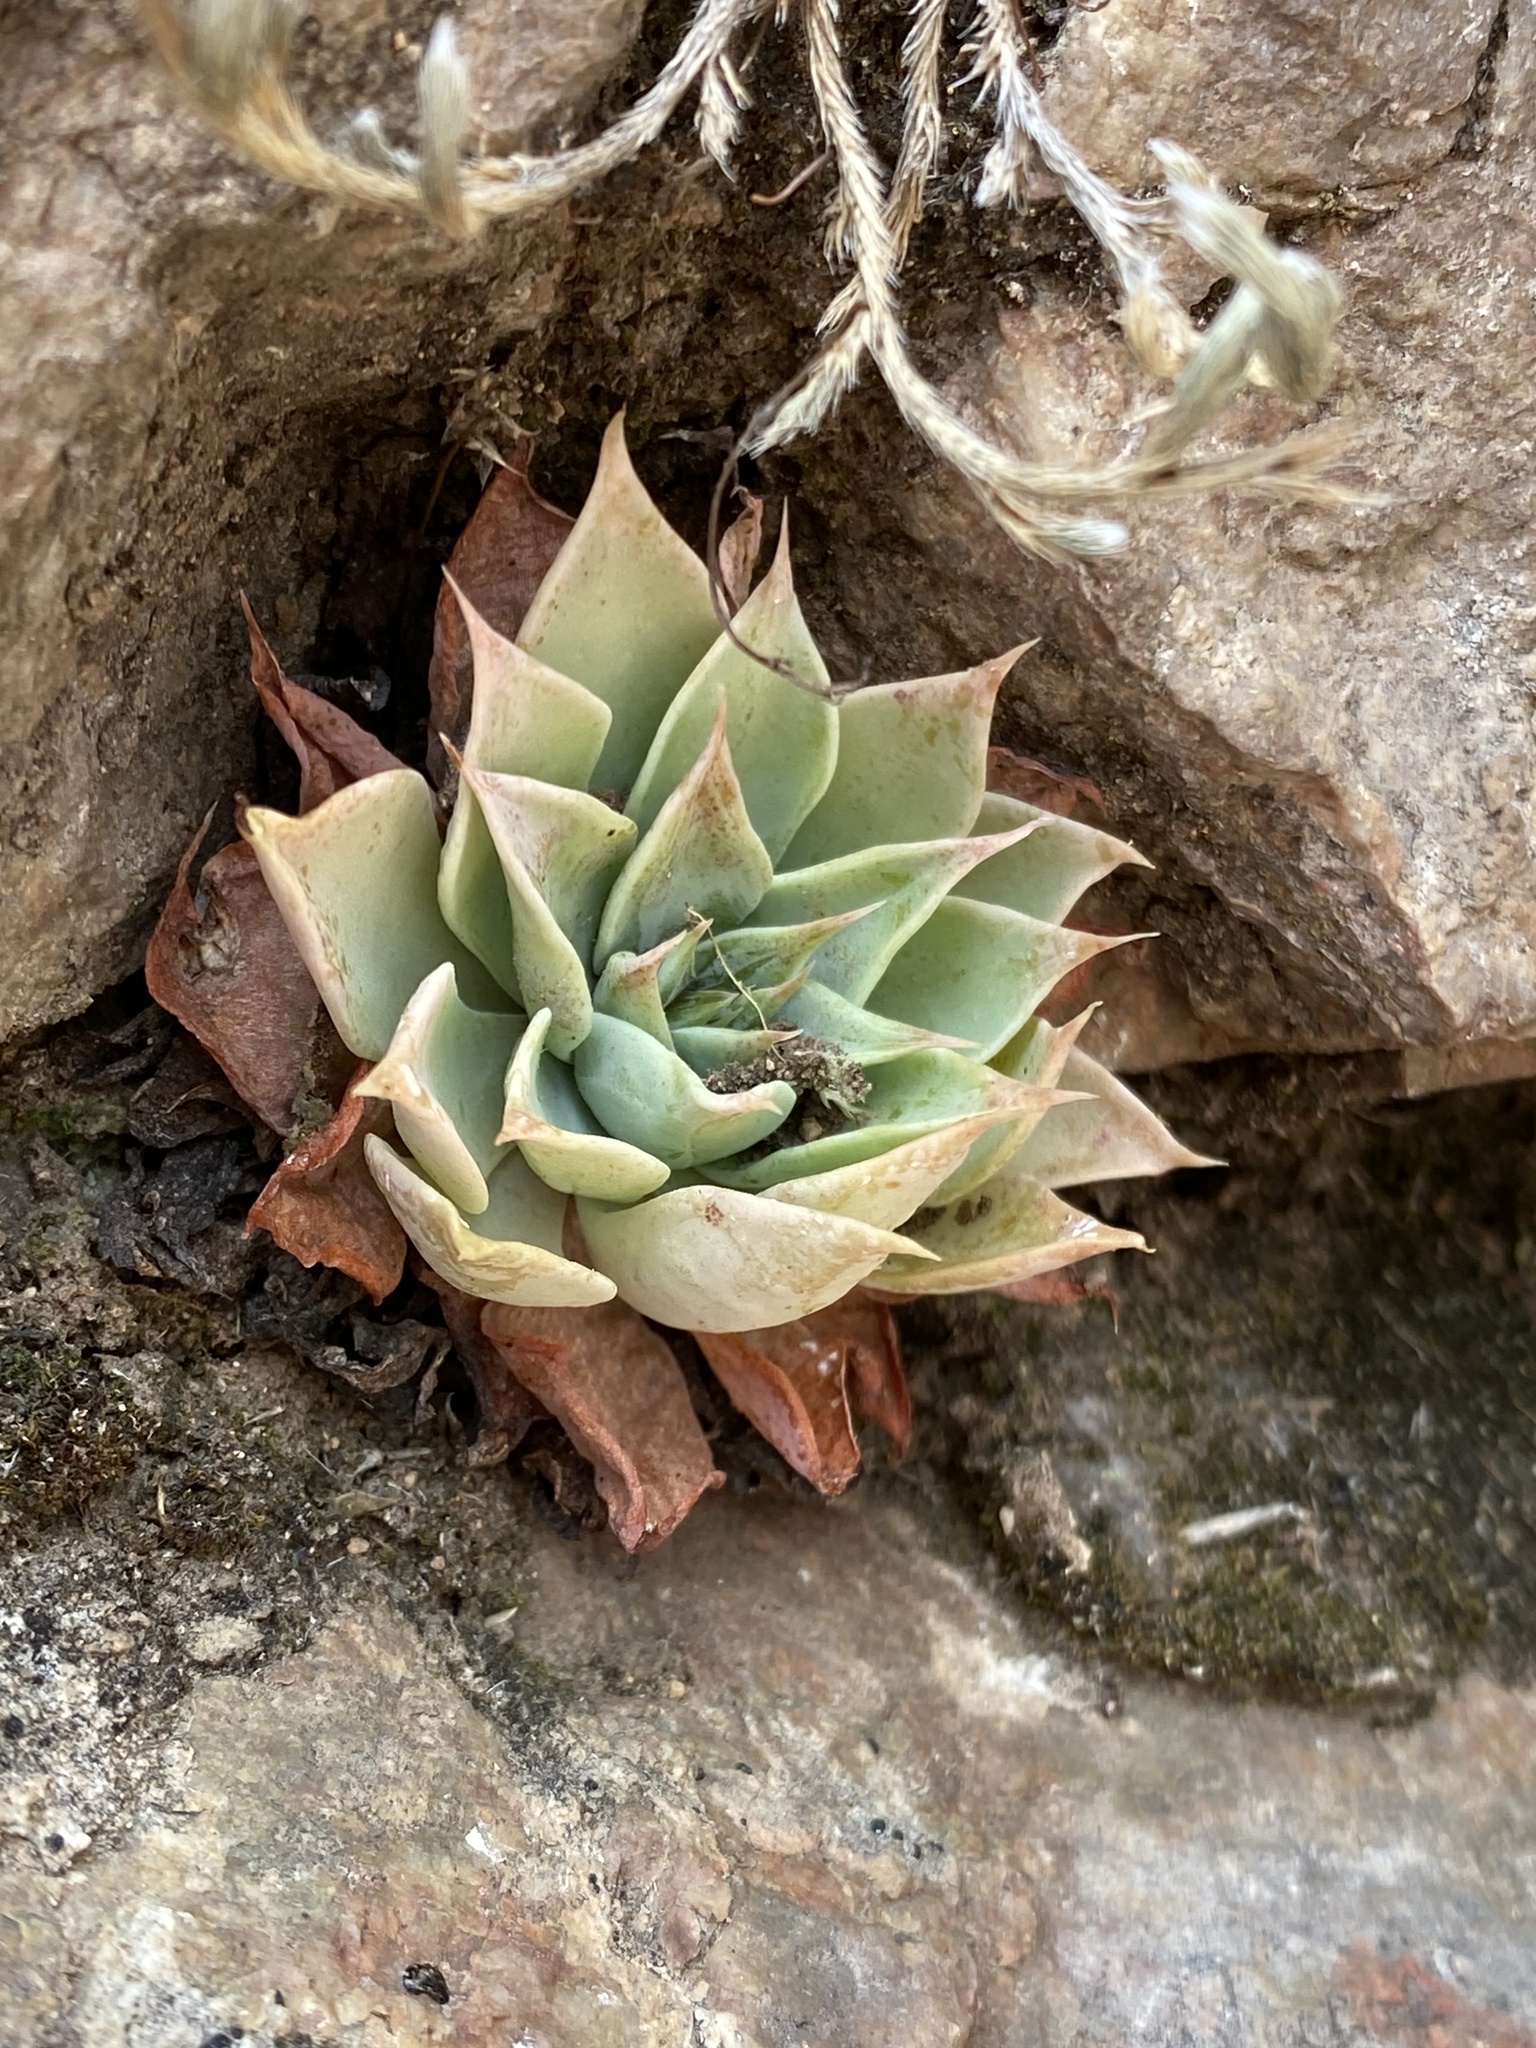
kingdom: Plantae
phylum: Tracheophyta
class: Magnoliopsida
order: Saxifragales
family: Crassulaceae
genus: Graptopetalum
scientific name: Graptopetalum bartramii
